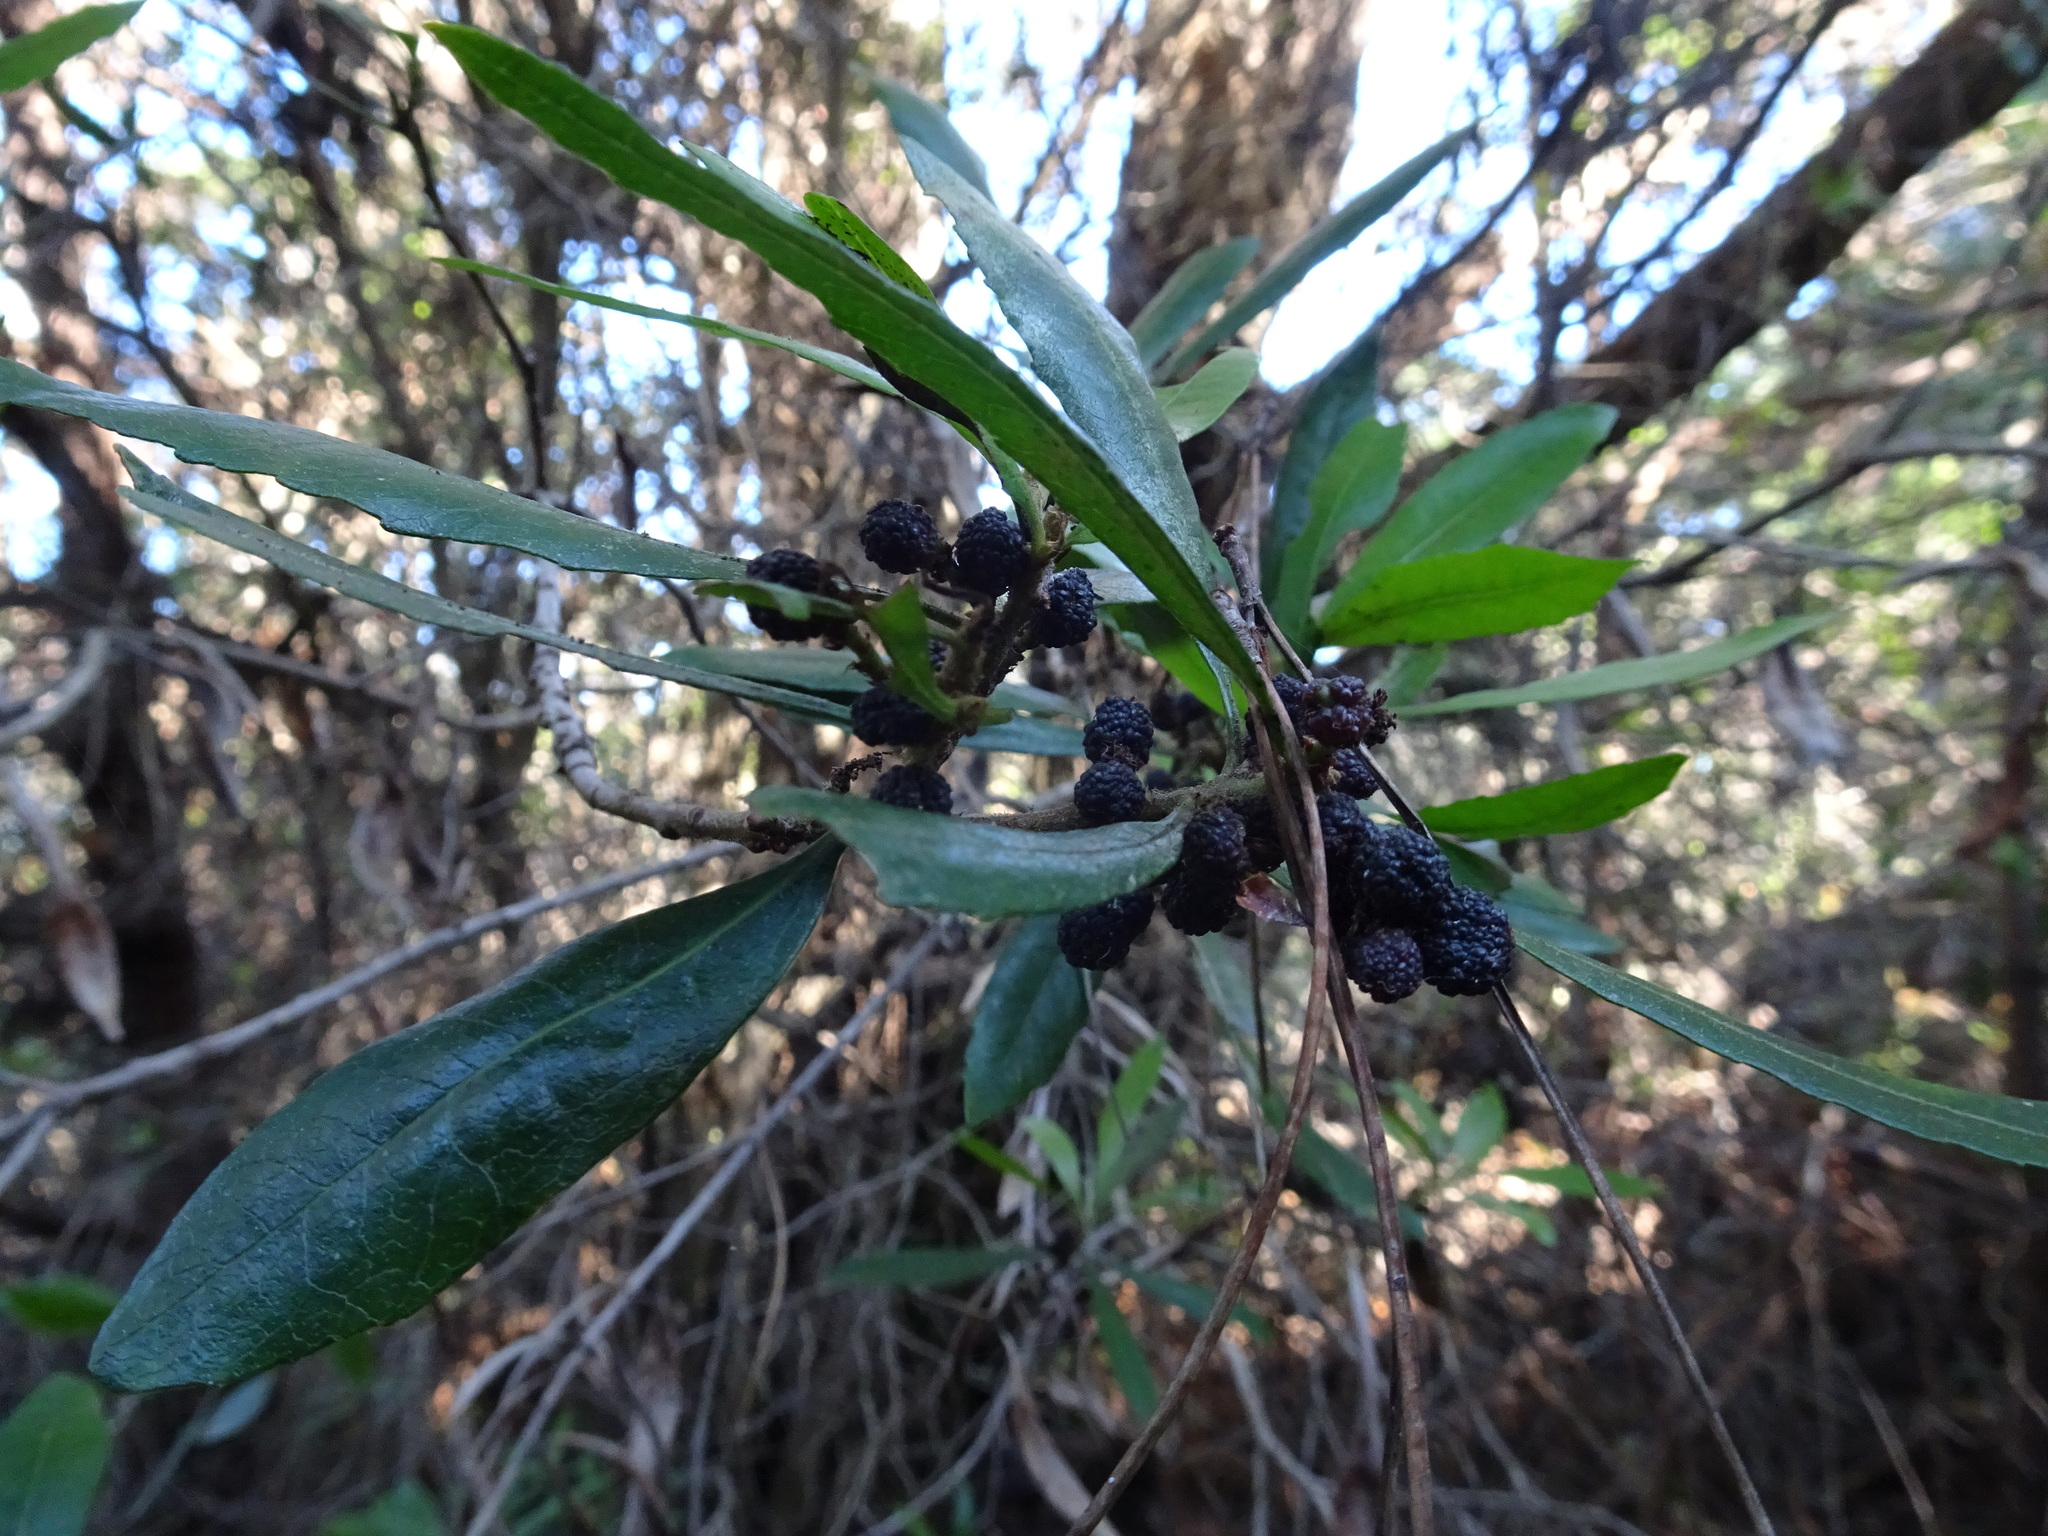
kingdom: Plantae
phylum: Tracheophyta
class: Magnoliopsida
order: Fagales
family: Myricaceae
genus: Morella
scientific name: Morella californica
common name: California wax-myrtle
